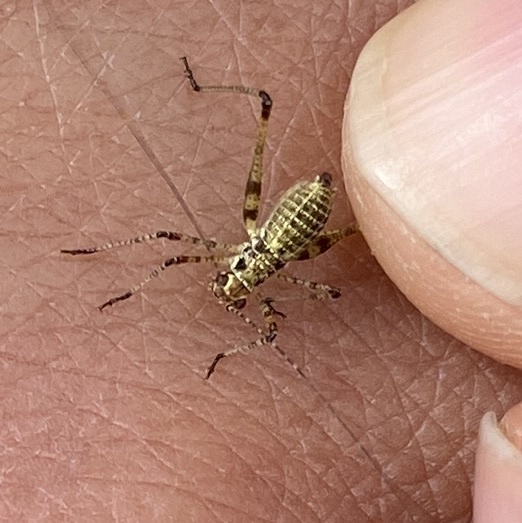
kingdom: Animalia
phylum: Arthropoda
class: Insecta
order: Orthoptera
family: Tettigoniidae
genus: Phaneroptera
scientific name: Phaneroptera nana
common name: Southern sickle bush-cricket
